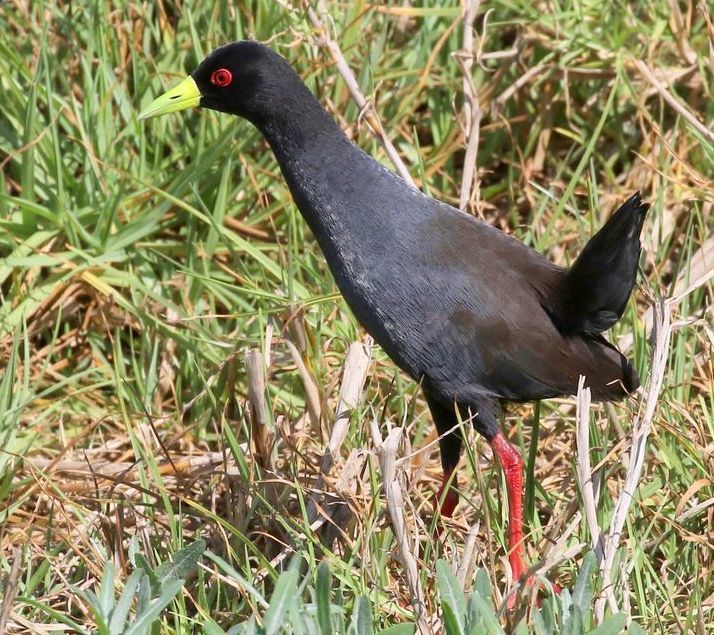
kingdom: Animalia
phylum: Chordata
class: Aves
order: Gruiformes
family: Rallidae
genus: Amaurornis
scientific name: Amaurornis flavirostra
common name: Black crake
